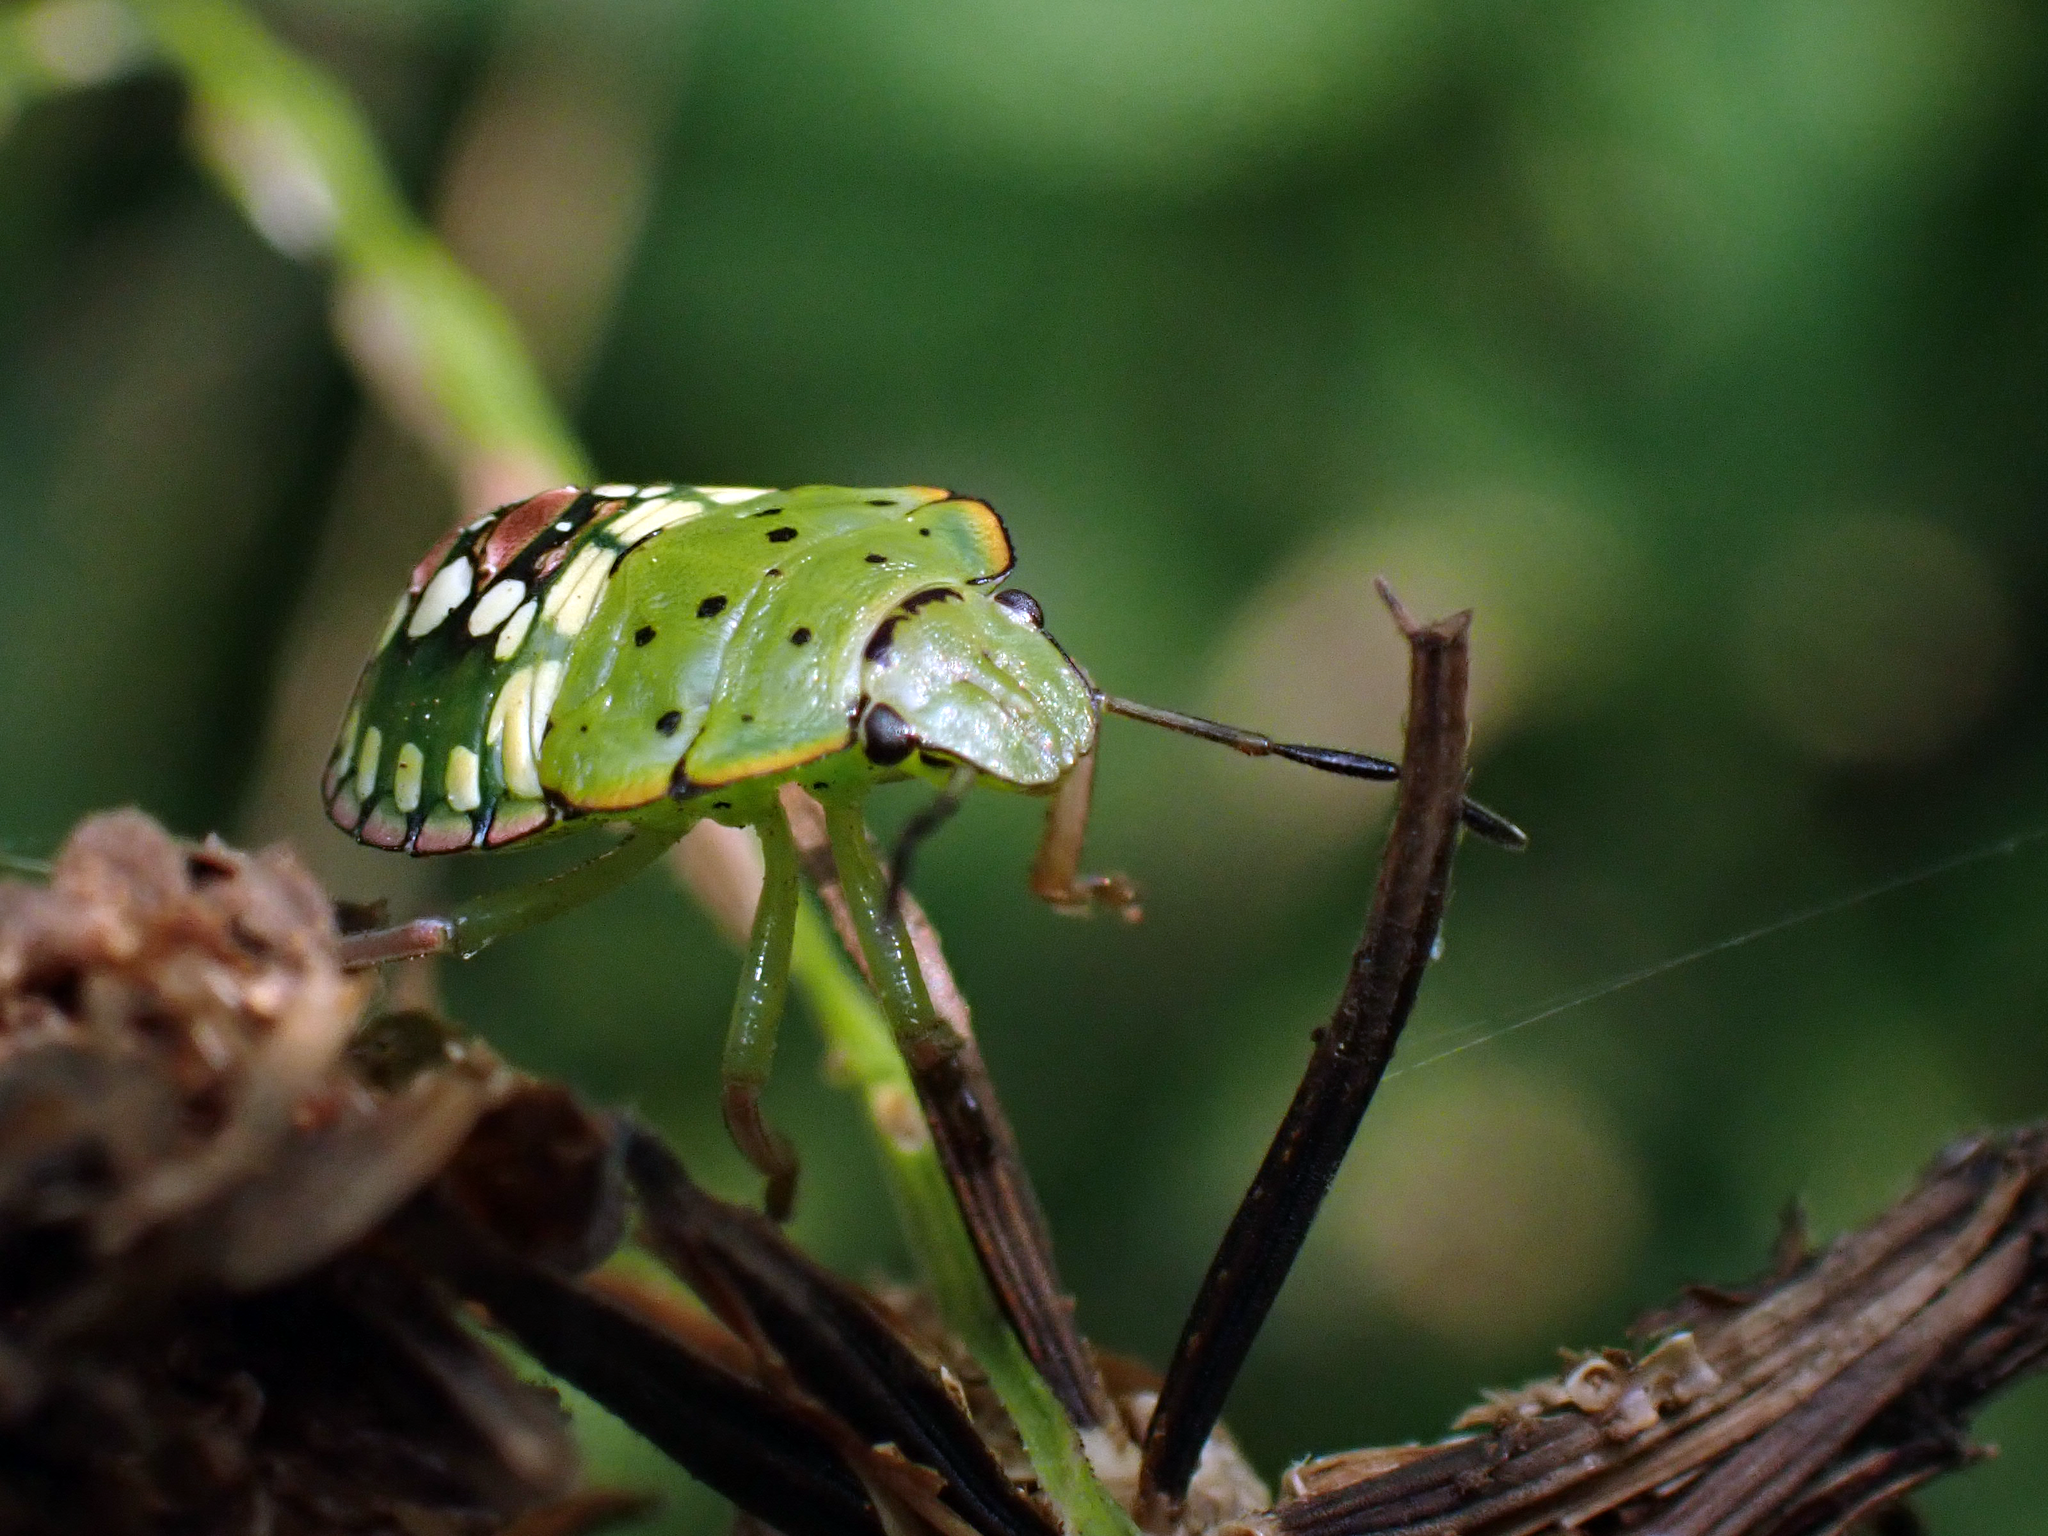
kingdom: Animalia
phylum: Arthropoda
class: Insecta
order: Hemiptera
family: Pentatomidae
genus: Nezara
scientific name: Nezara viridula
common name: Southern green stink bug
